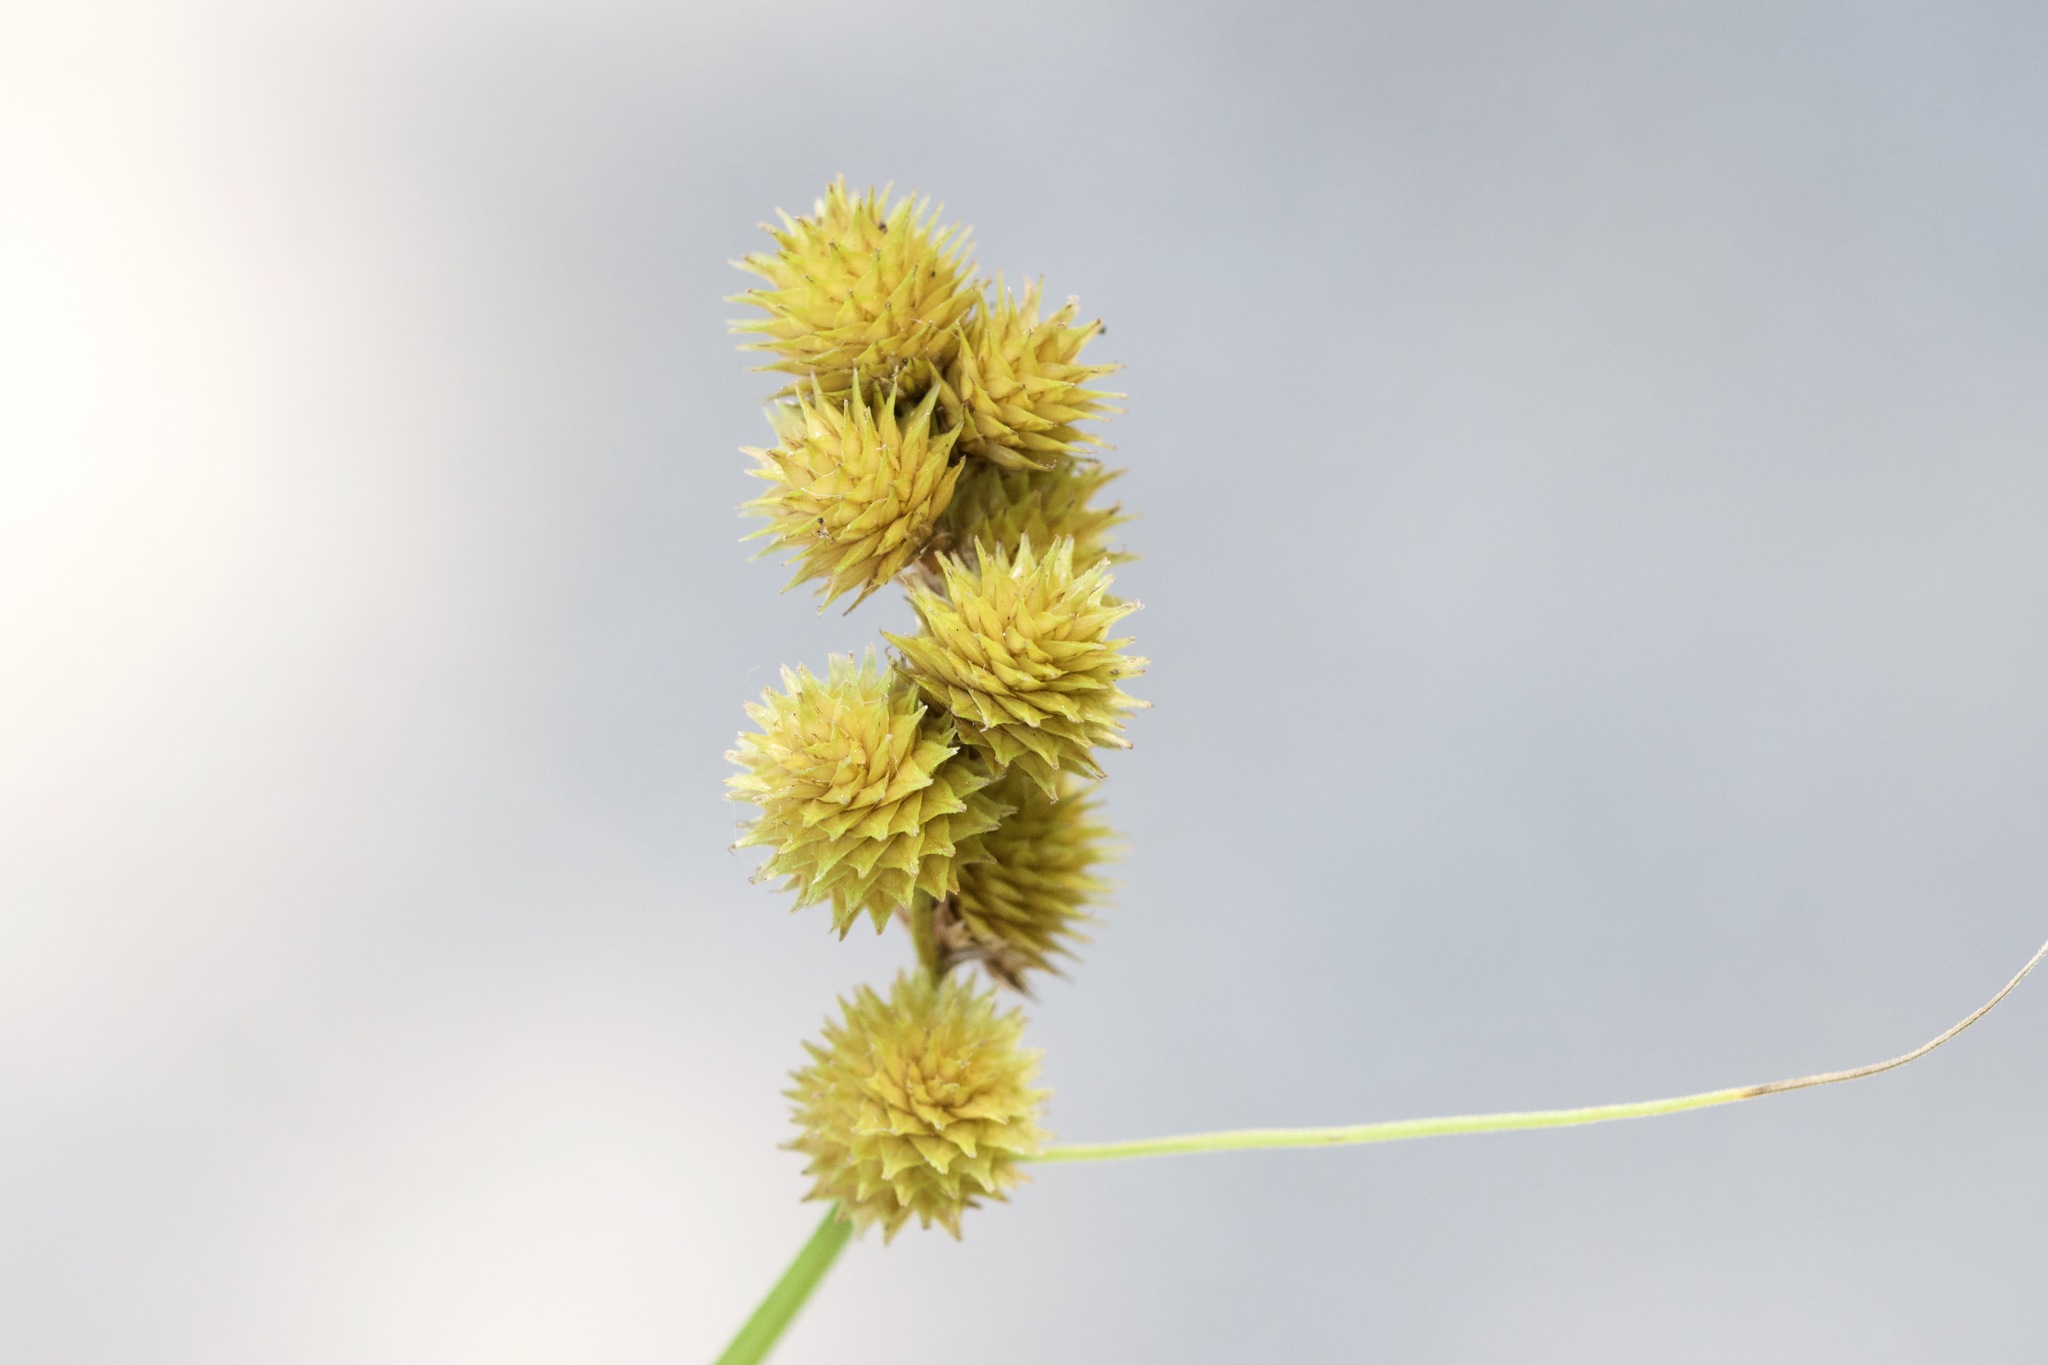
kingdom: Plantae
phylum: Tracheophyta
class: Liliopsida
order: Poales
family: Cyperaceae
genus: Carex
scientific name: Carex cristatella
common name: Crested oval sedge
